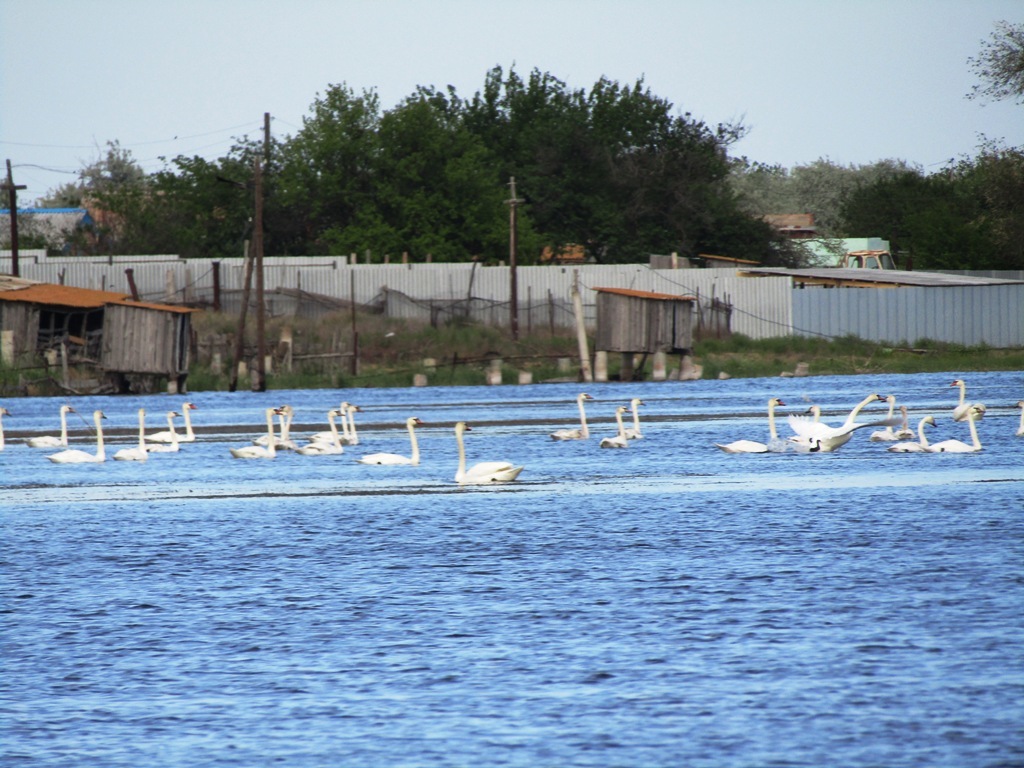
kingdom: Animalia
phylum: Chordata
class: Aves
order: Anseriformes
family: Anatidae
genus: Cygnus
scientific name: Cygnus olor
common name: Mute swan
